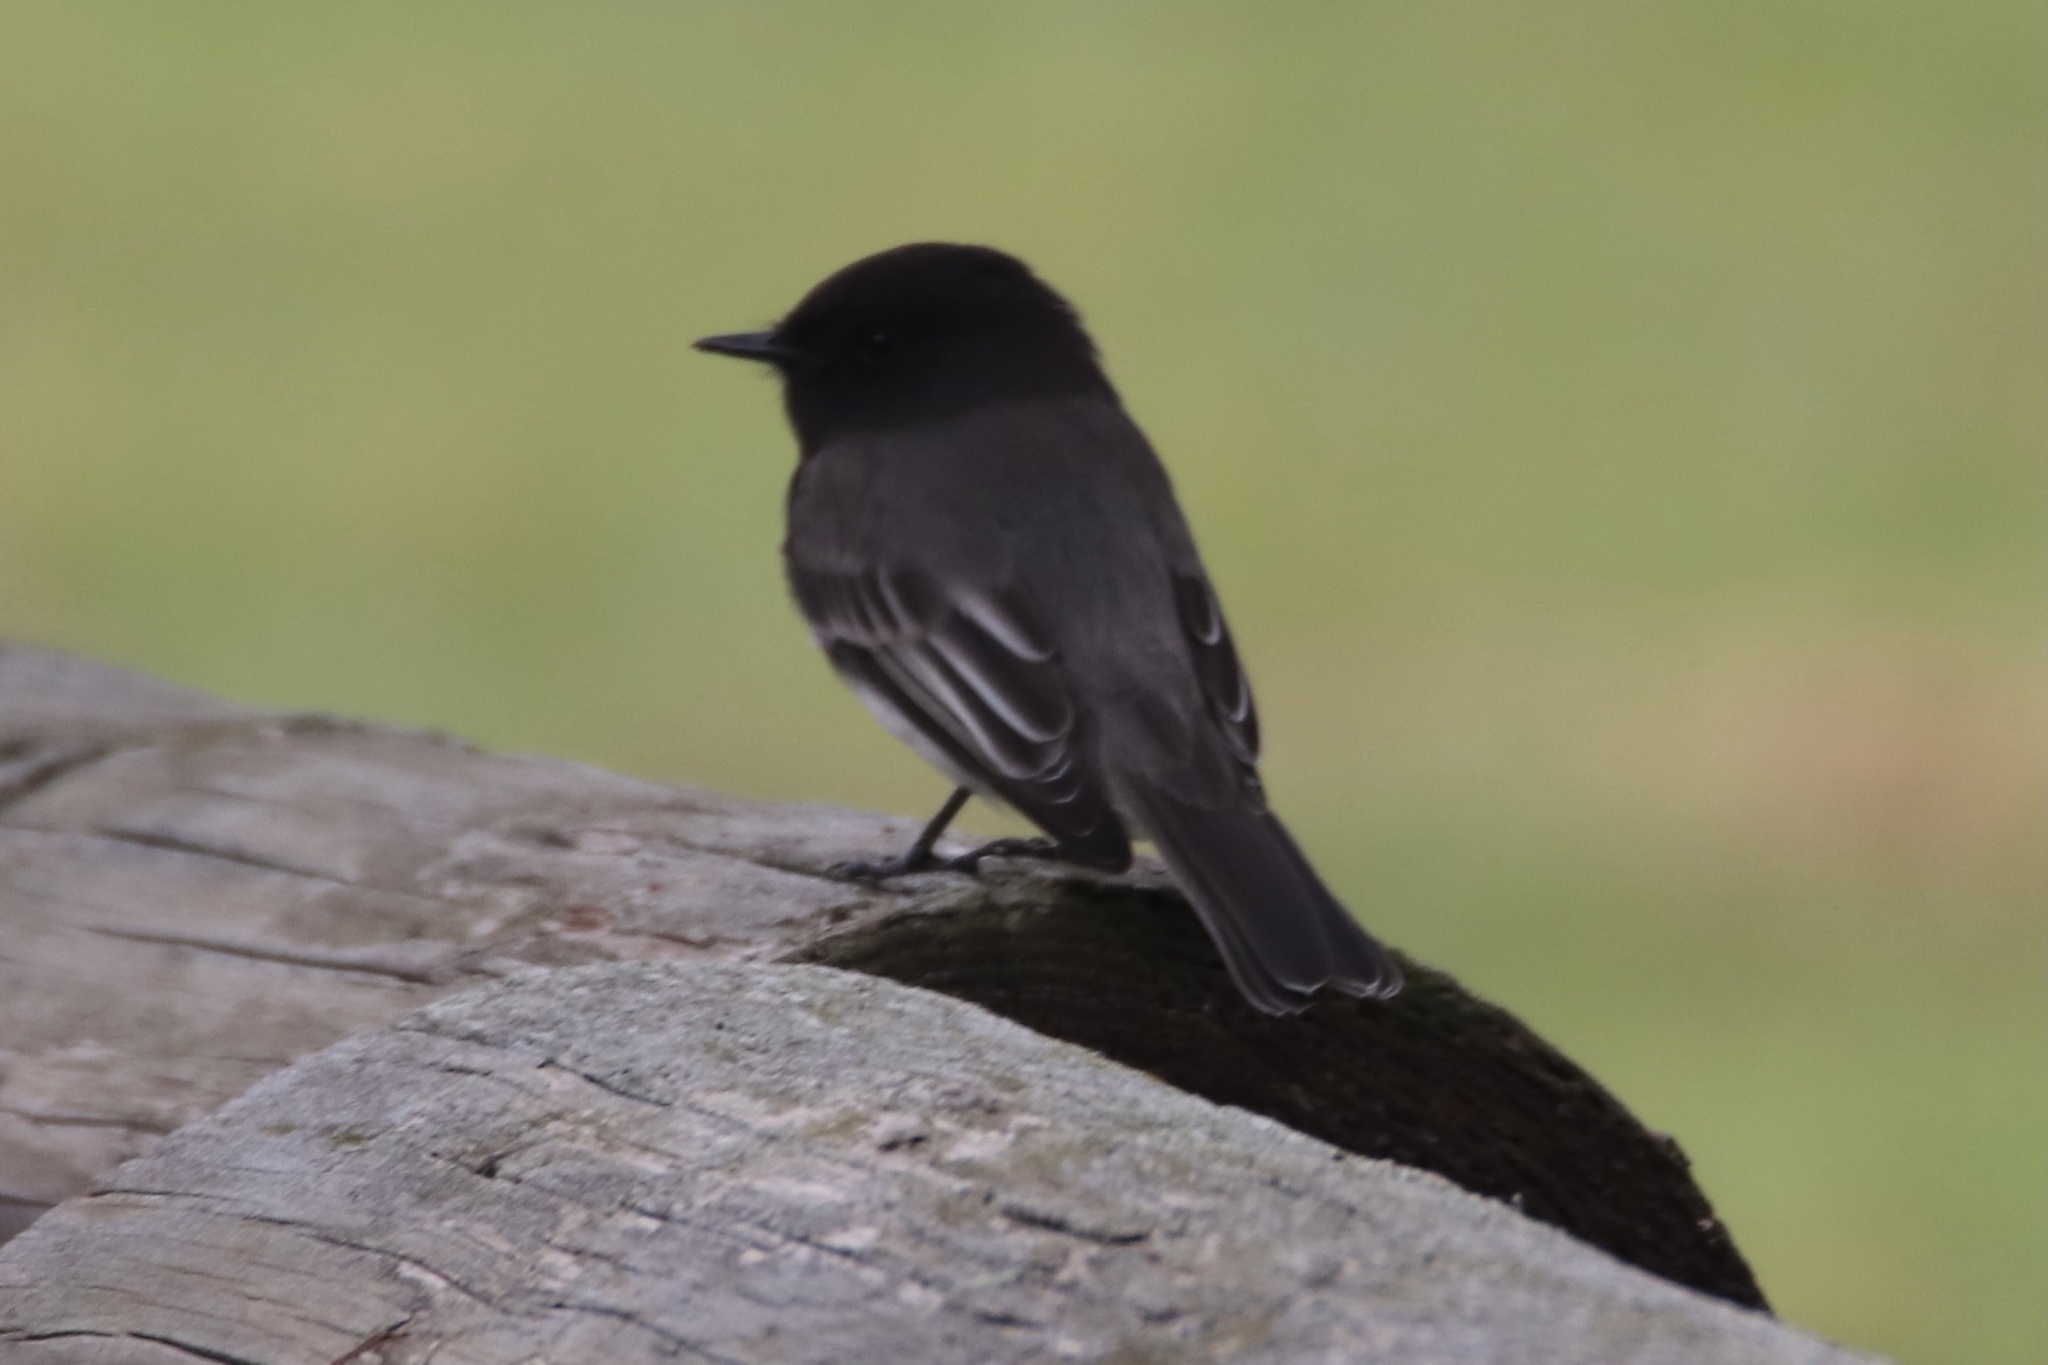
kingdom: Animalia
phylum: Chordata
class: Aves
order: Passeriformes
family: Tyrannidae
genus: Sayornis
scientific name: Sayornis nigricans
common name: Black phoebe
